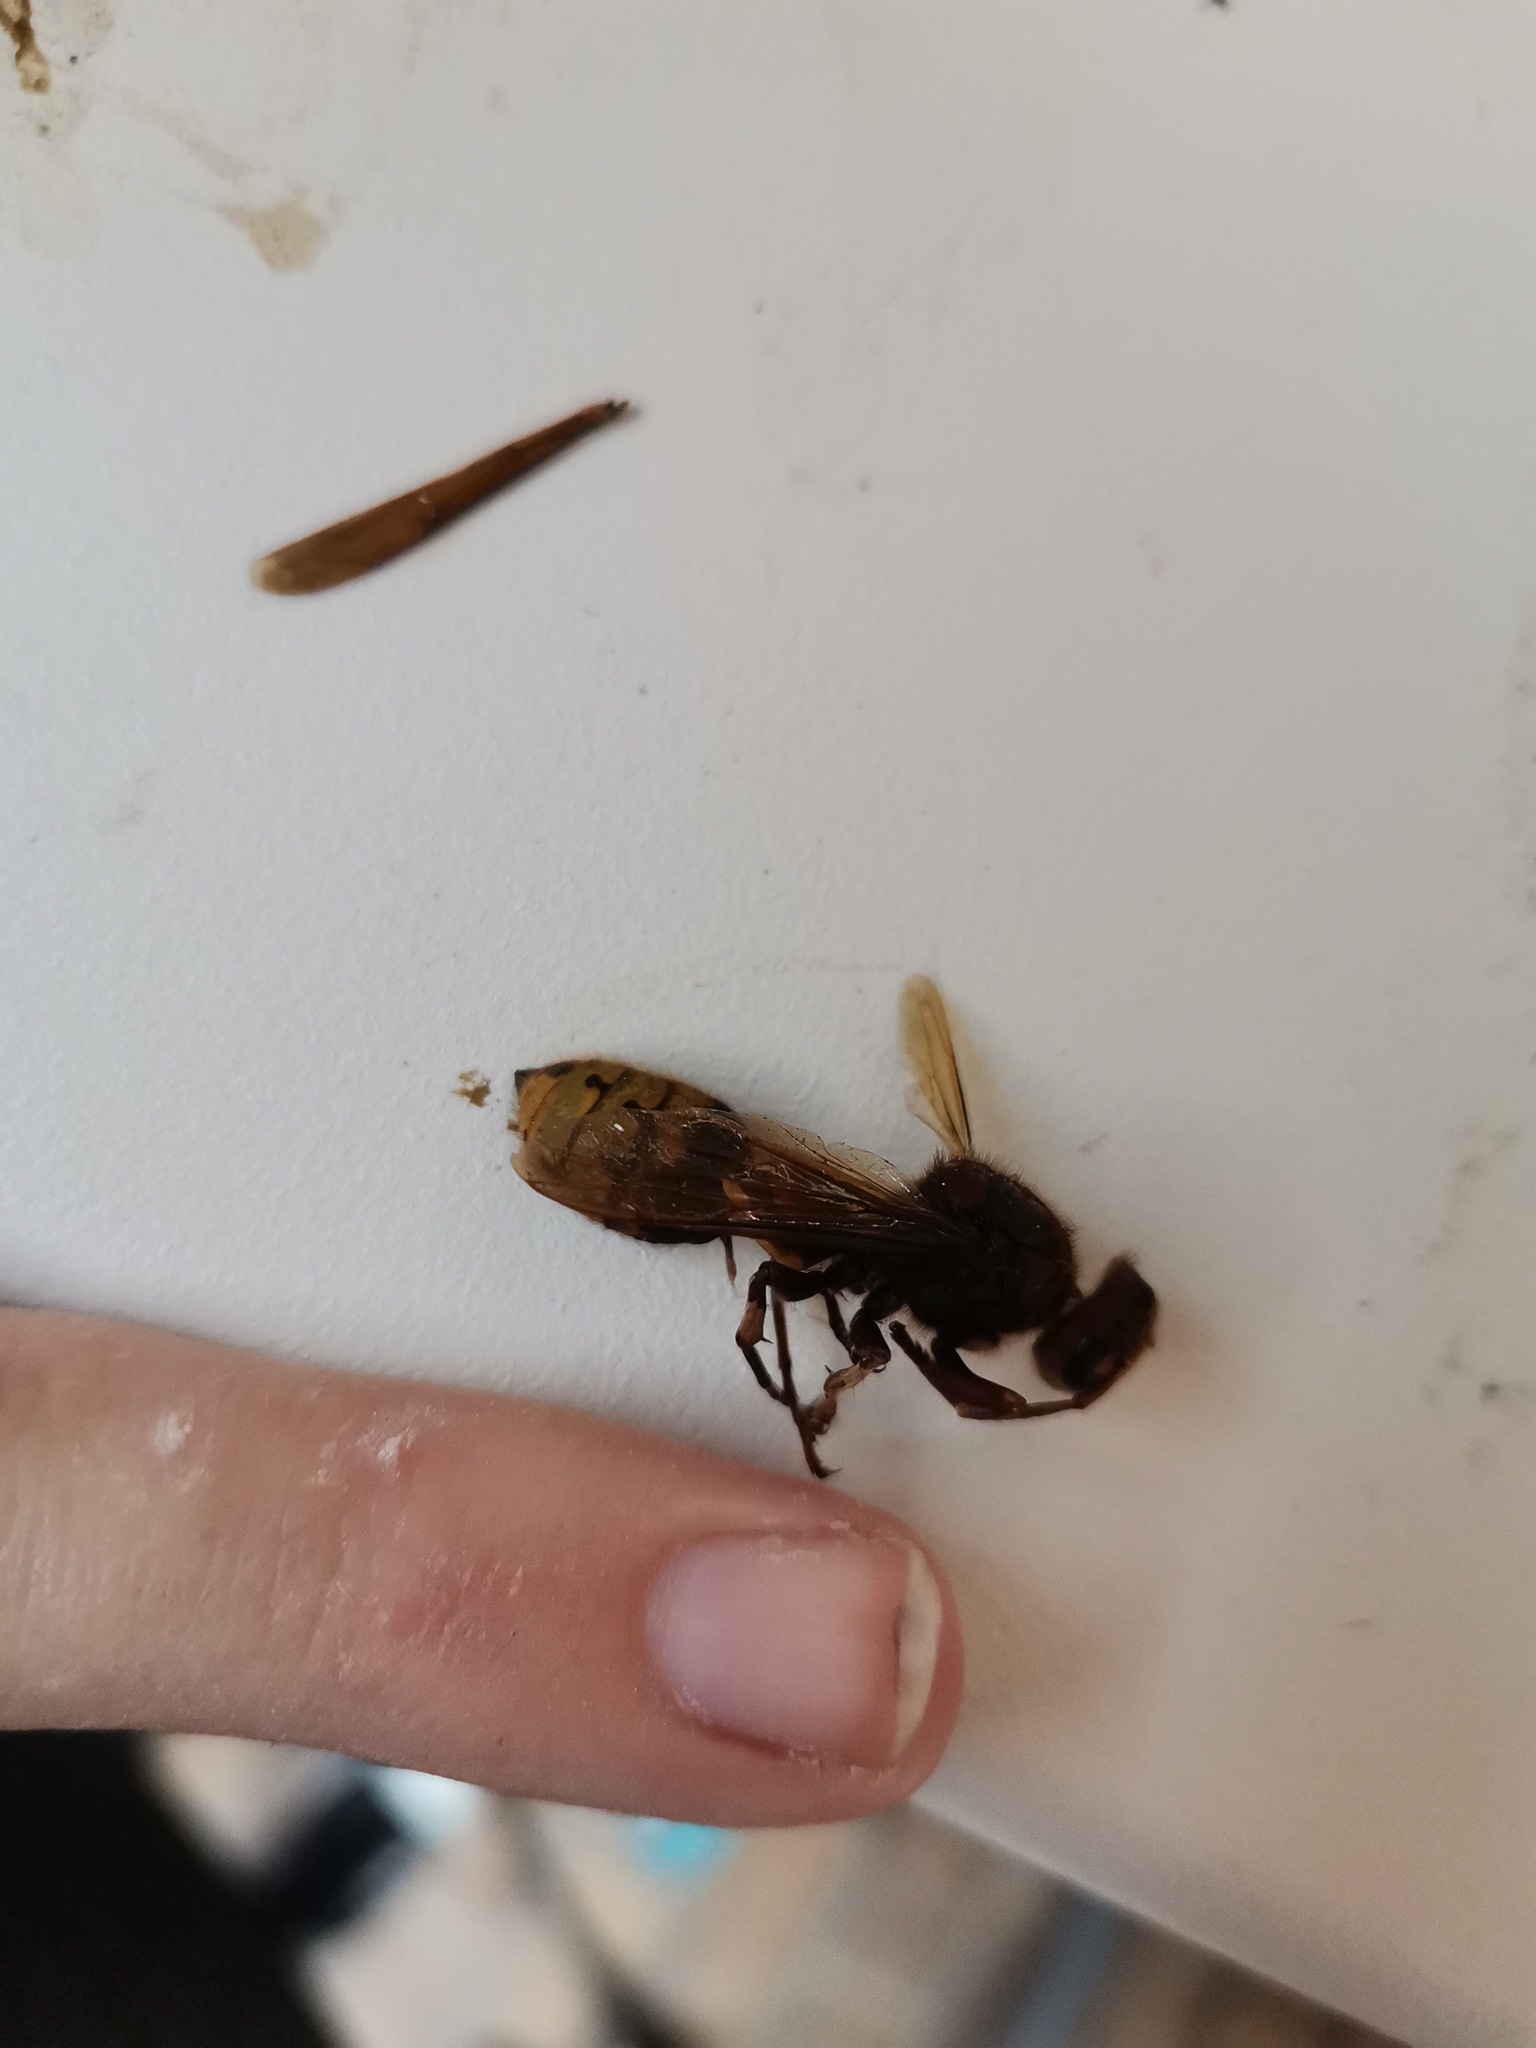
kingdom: Animalia
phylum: Arthropoda
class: Insecta
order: Hymenoptera
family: Vespidae
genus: Vespa
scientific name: Vespa crabro
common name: Hornet
